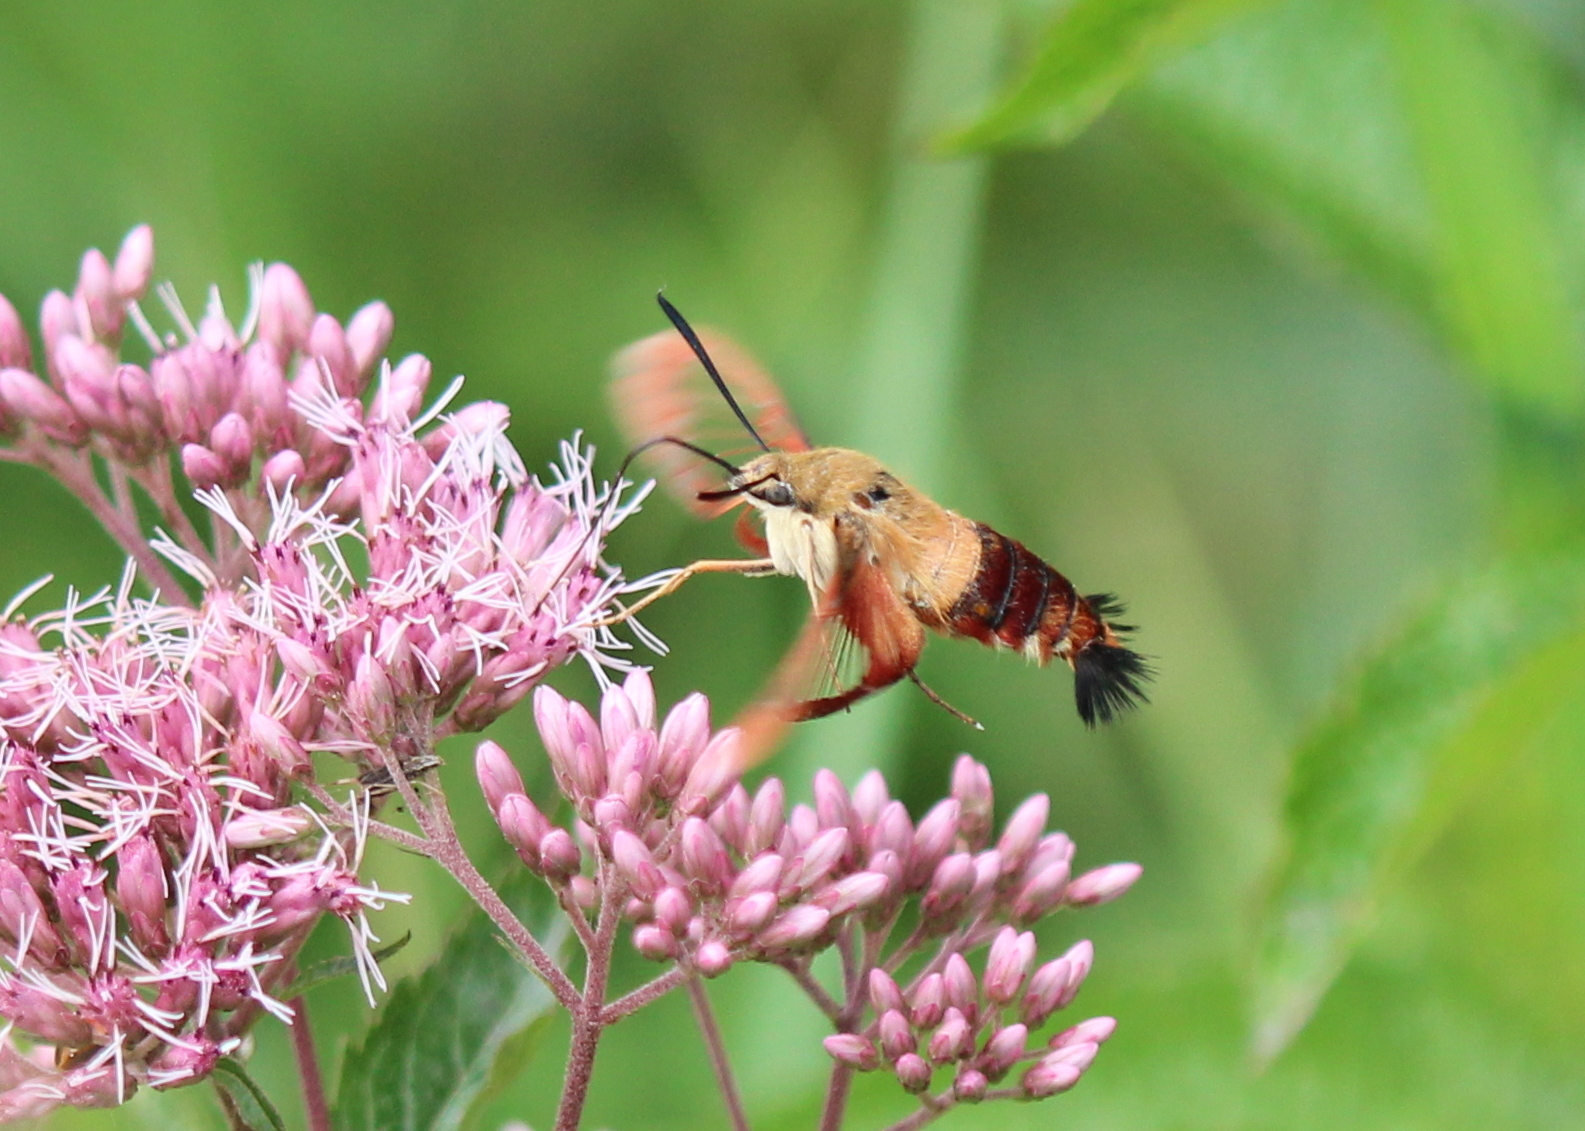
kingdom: Animalia
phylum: Arthropoda
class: Insecta
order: Lepidoptera
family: Sphingidae
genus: Hemaris
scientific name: Hemaris thysbe
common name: Common clear-wing
